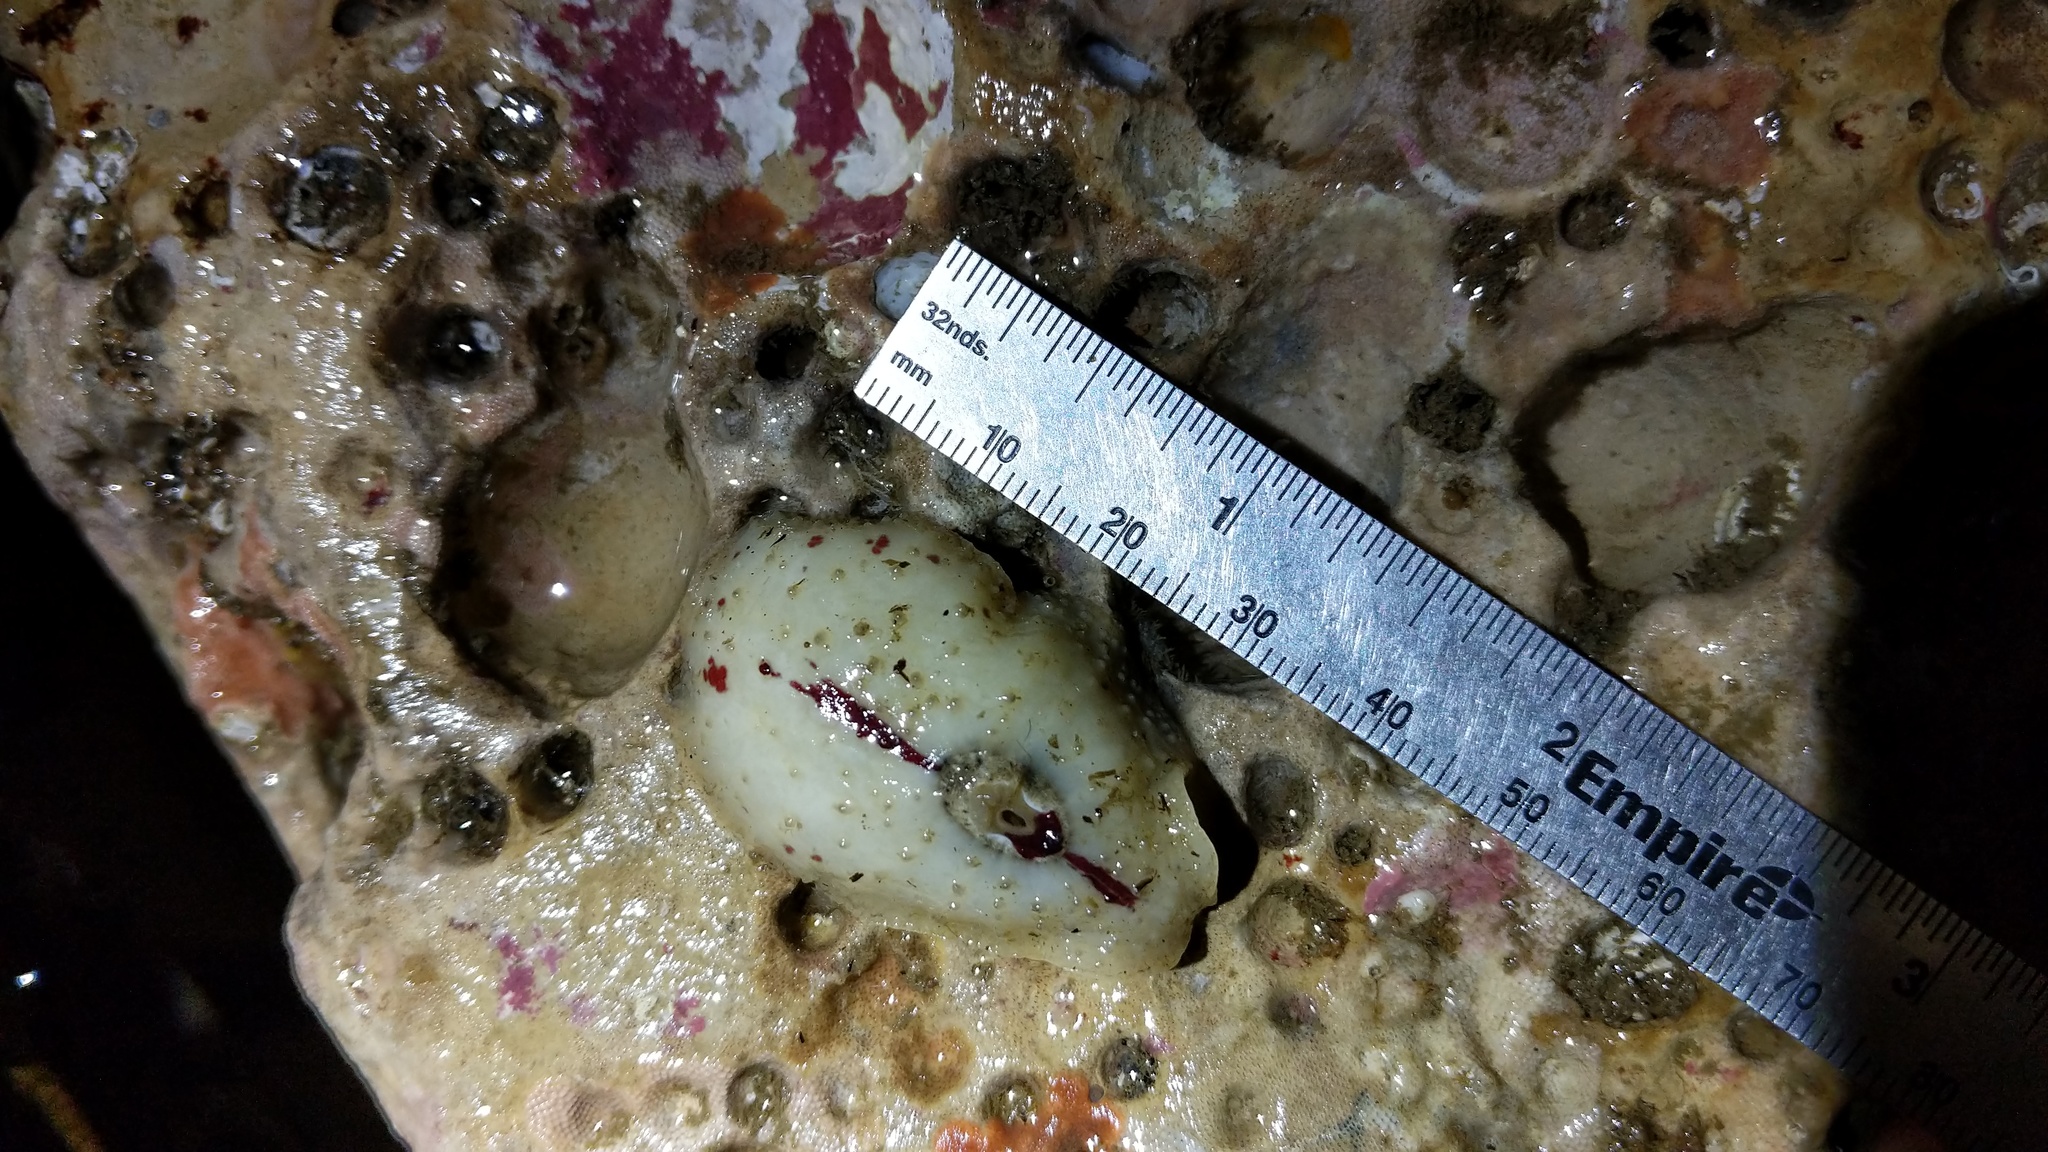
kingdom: Animalia
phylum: Mollusca
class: Gastropoda
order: Lepetellida
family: Fissurellidae
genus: Fissurellidea
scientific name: Fissurellidea bimaculata
